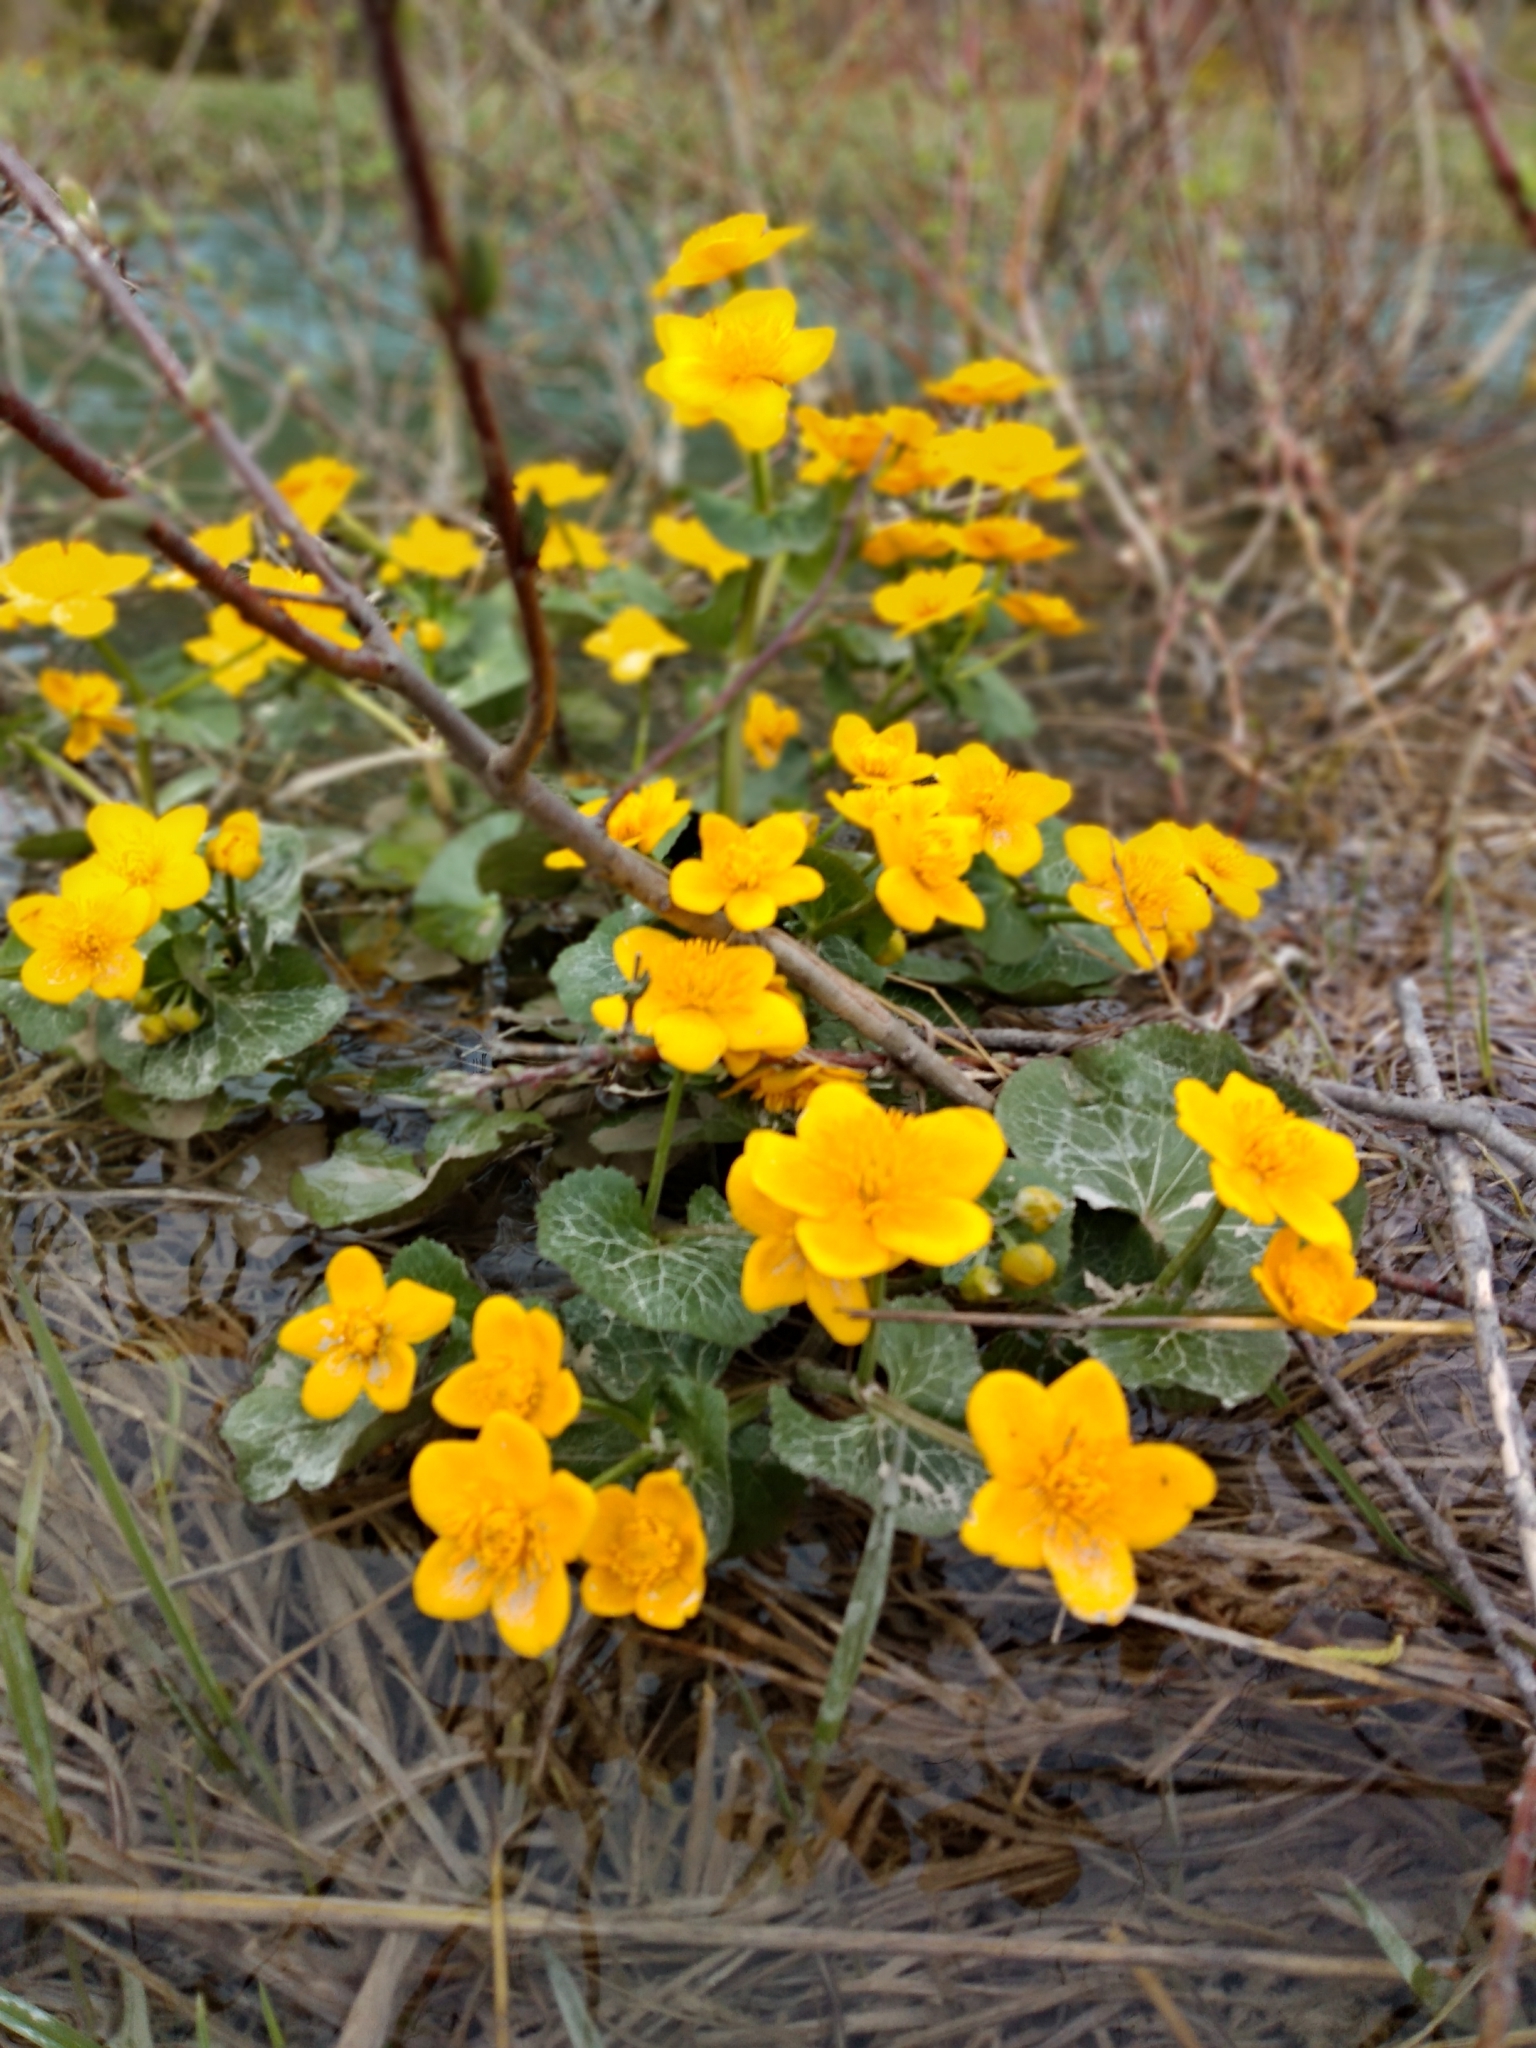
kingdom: Plantae
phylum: Tracheophyta
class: Magnoliopsida
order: Ranunculales
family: Ranunculaceae
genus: Caltha
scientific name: Caltha palustris
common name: Marsh marigold
